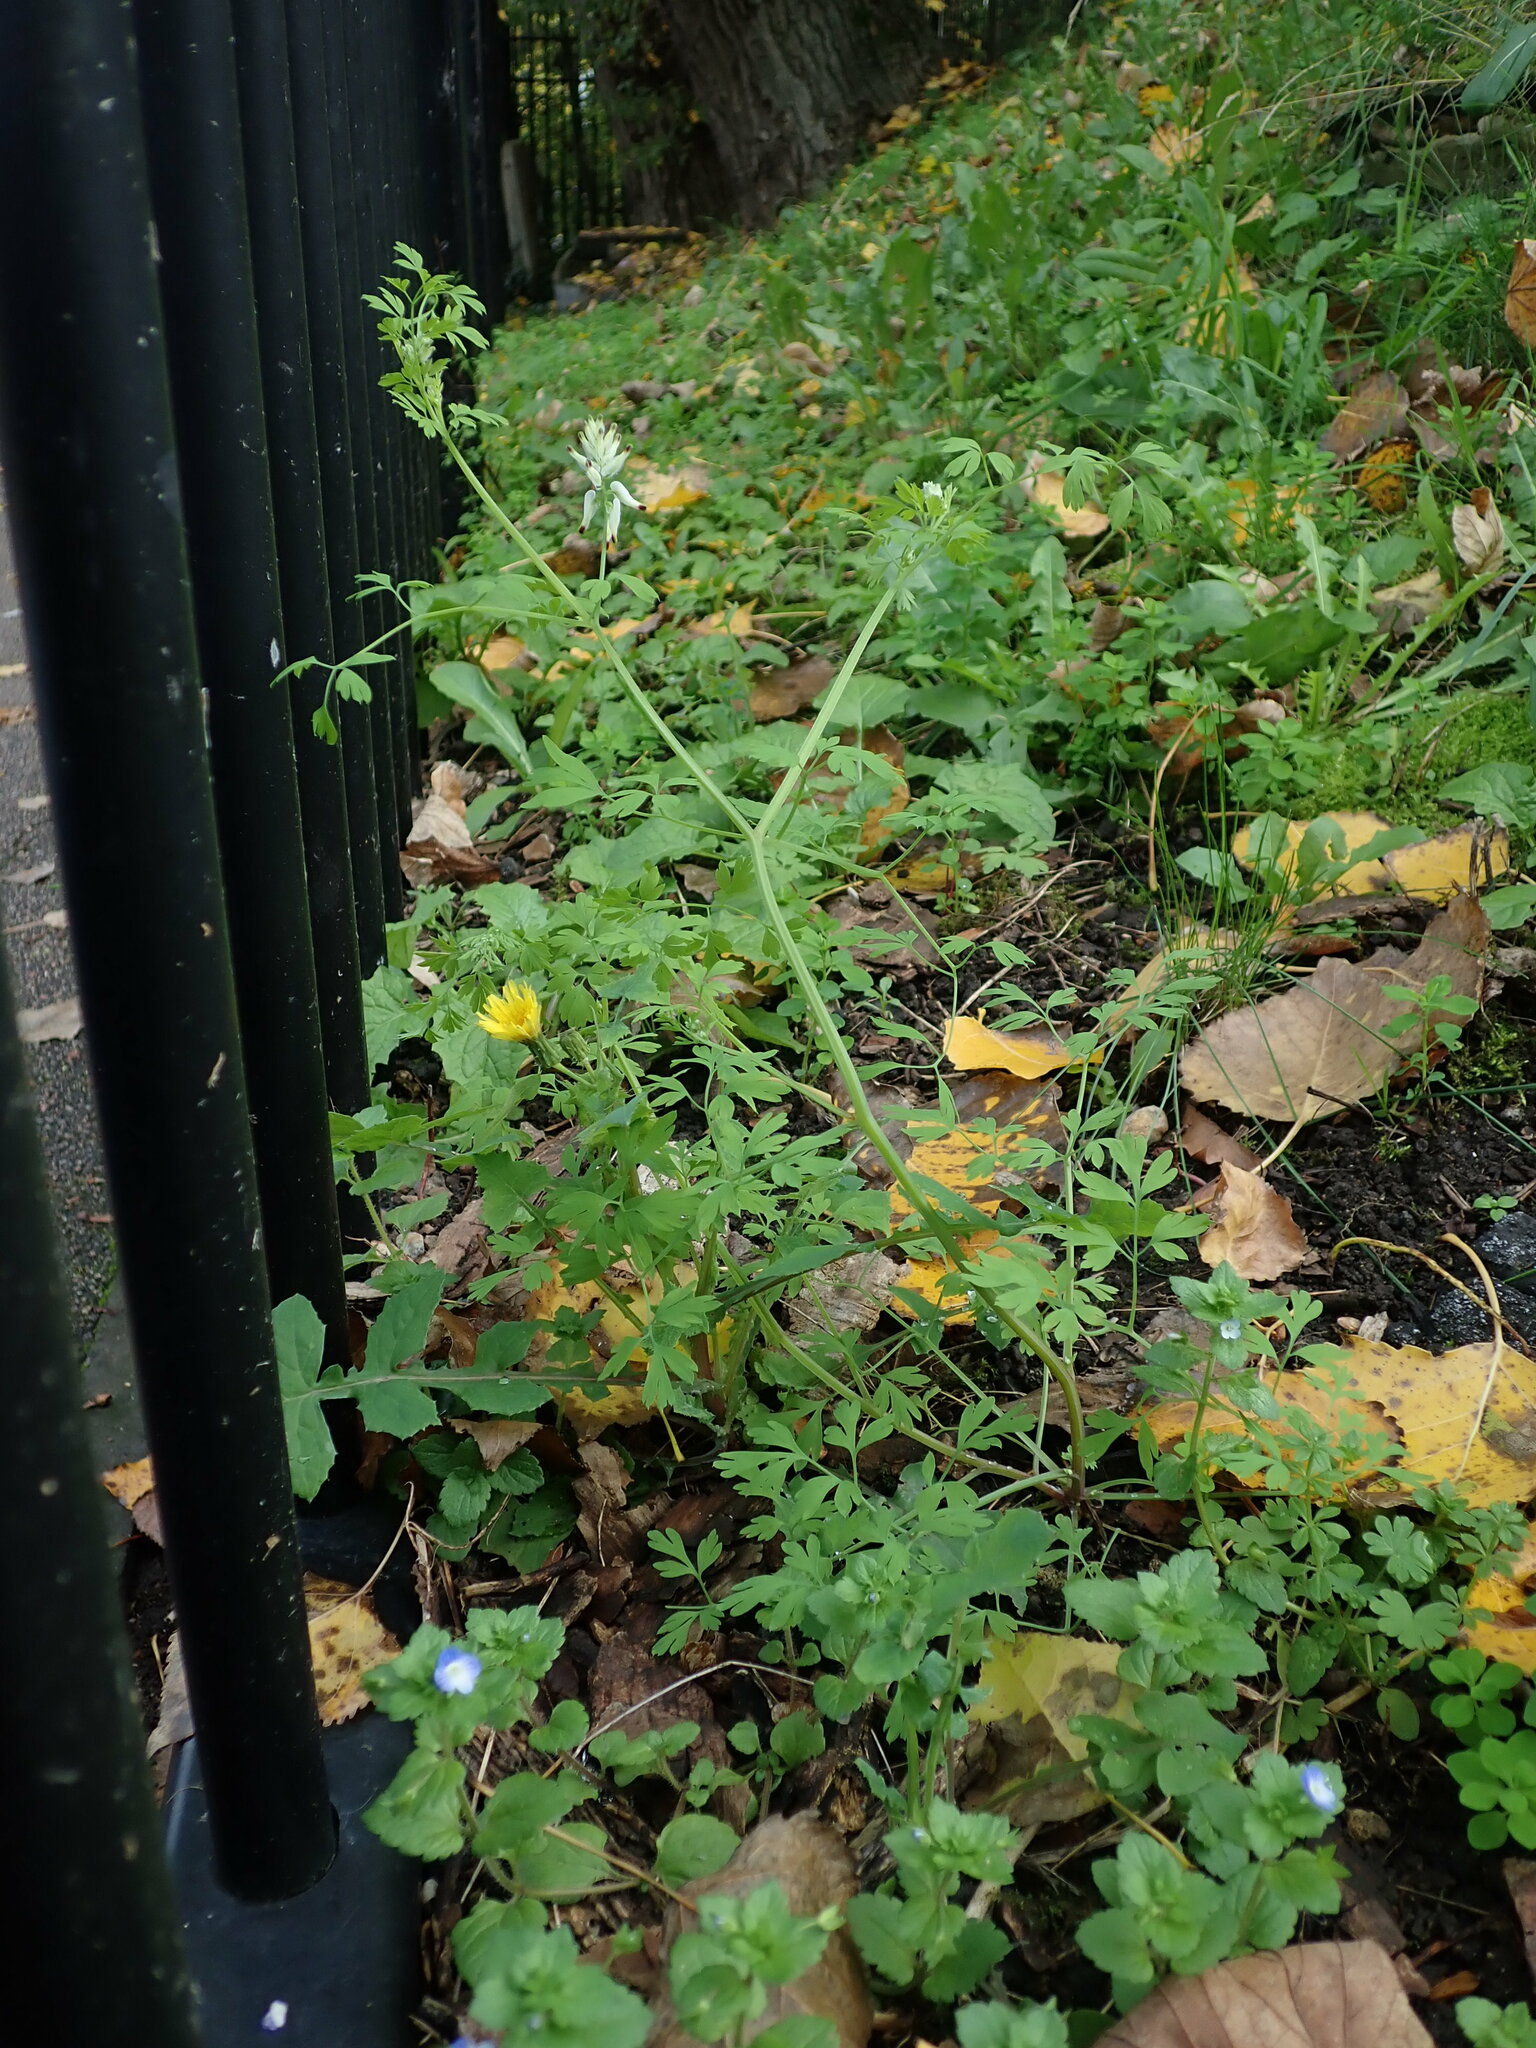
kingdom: Plantae
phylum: Tracheophyta
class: Magnoliopsida
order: Ranunculales
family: Papaveraceae
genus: Fumaria
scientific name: Fumaria capreolata
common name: White ramping-fumitory
